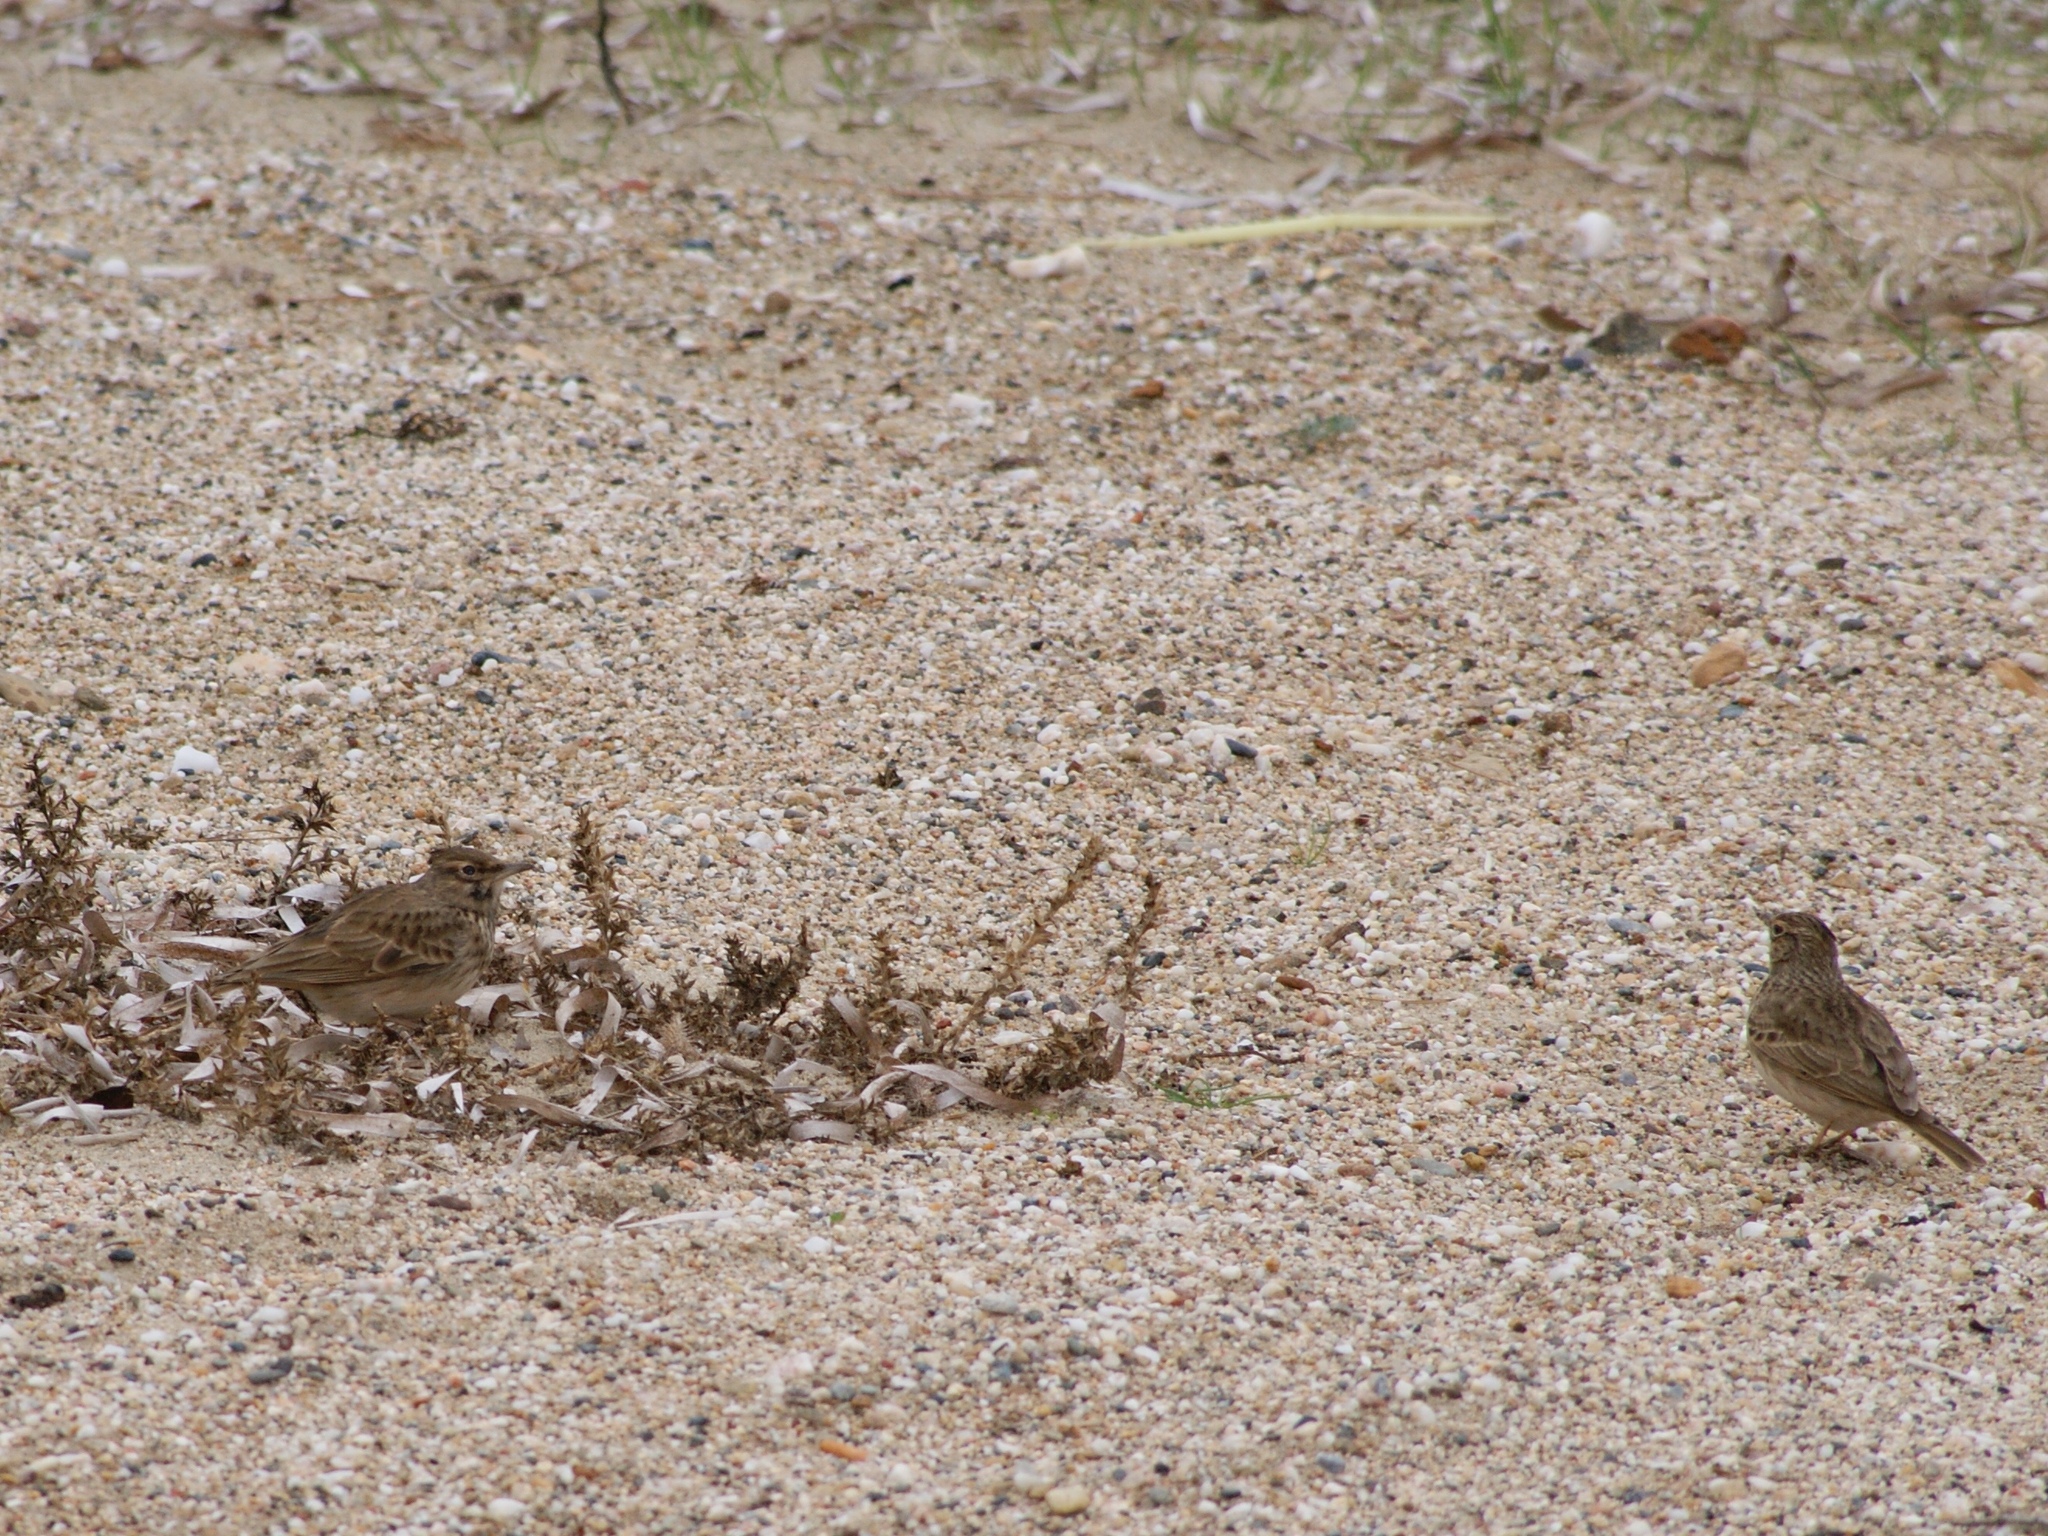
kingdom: Animalia
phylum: Chordata
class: Aves
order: Passeriformes
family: Alaudidae
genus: Galerida
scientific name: Galerida cristata
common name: Crested lark
